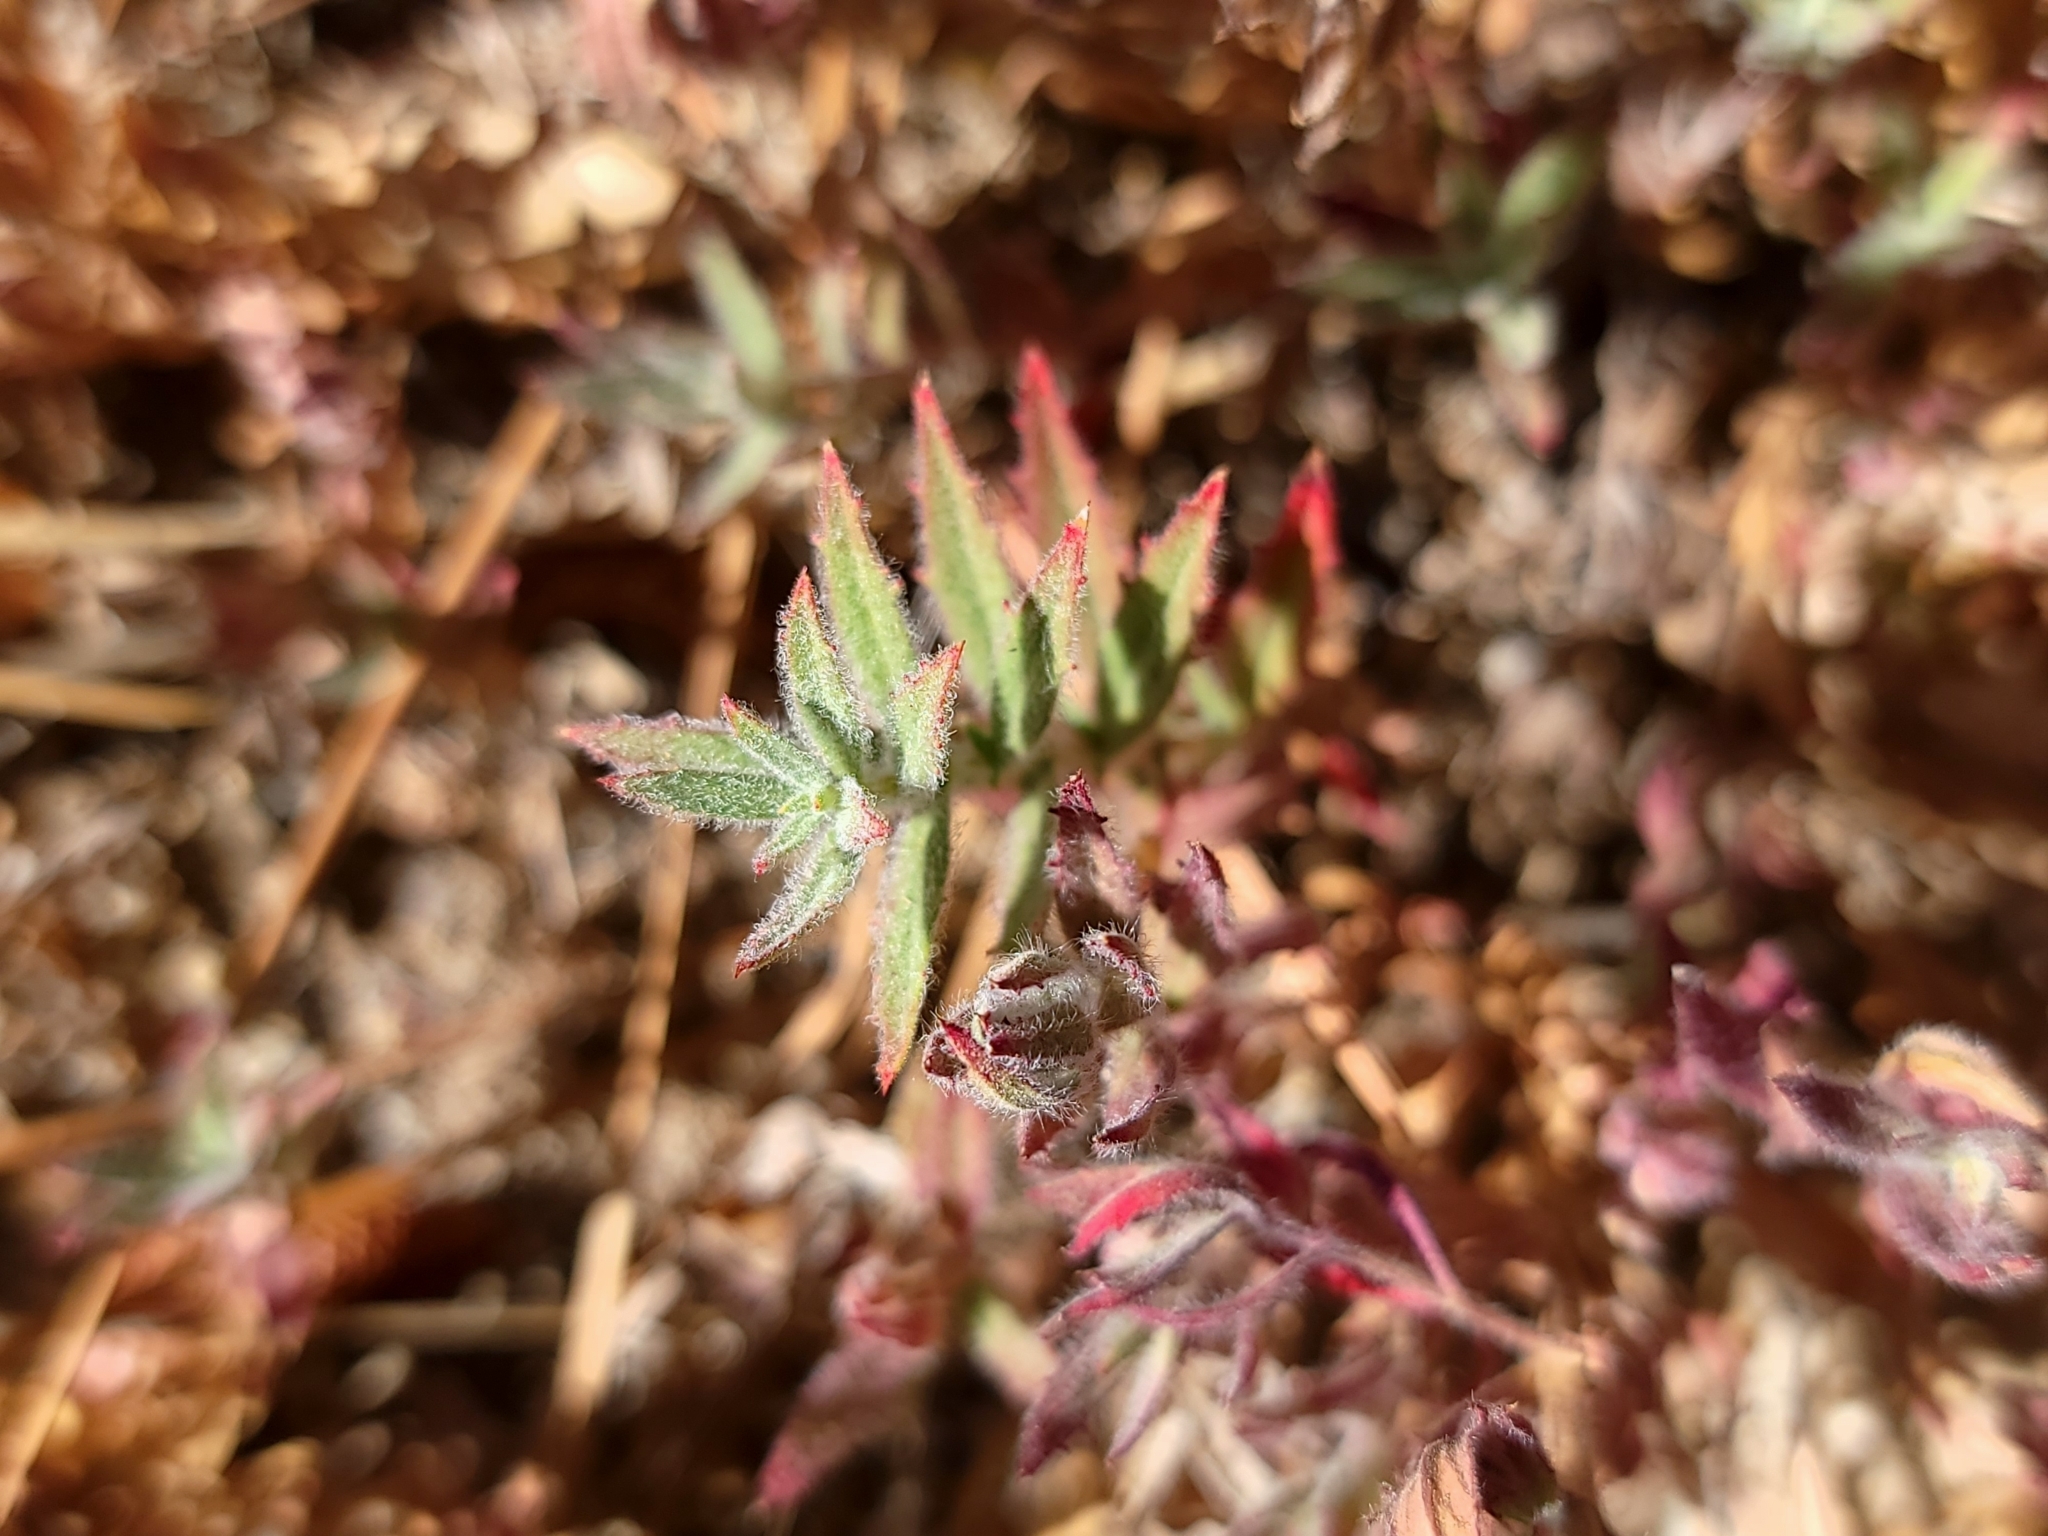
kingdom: Plantae
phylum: Tracheophyta
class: Magnoliopsida
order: Myrtales
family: Onagraceae
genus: Epilobium
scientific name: Epilobium canum
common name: California-fuchsia
